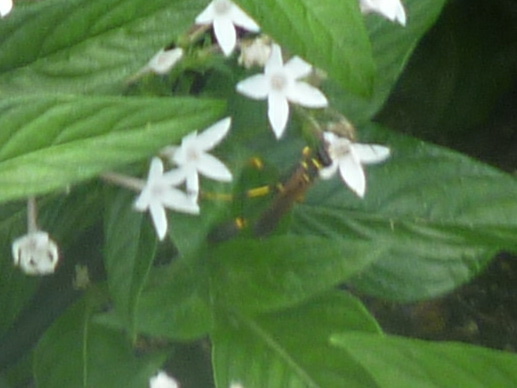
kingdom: Animalia
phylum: Arthropoda
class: Insecta
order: Hymenoptera
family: Sphecidae
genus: Sceliphron
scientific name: Sceliphron caementarium
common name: Mud dauber
